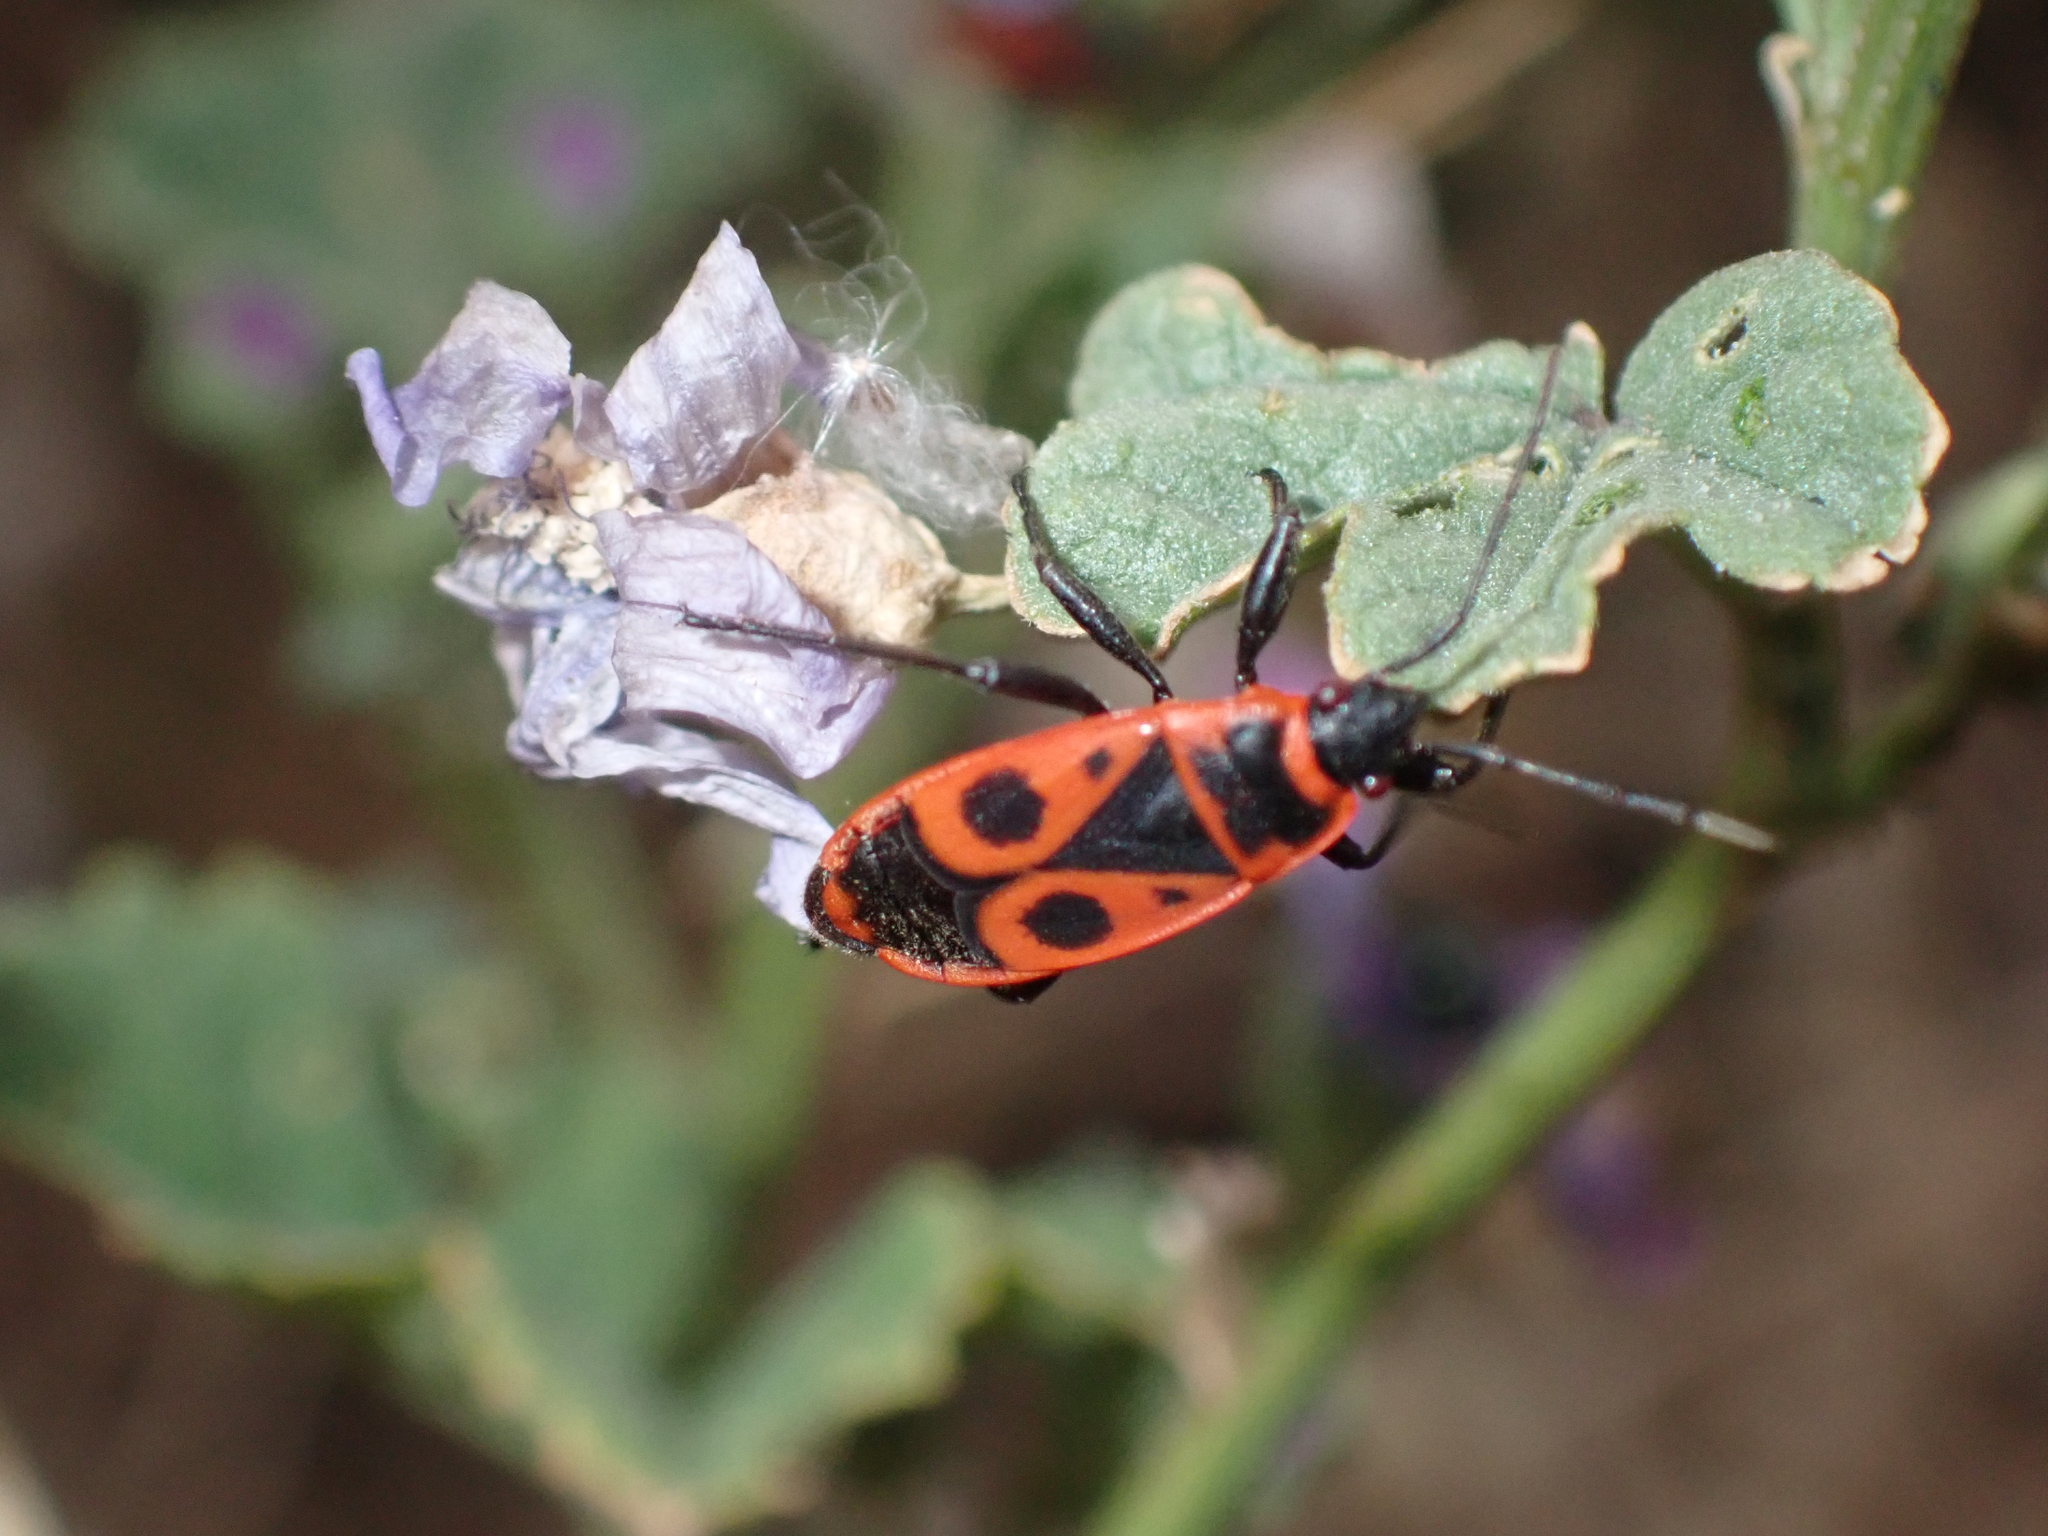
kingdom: Animalia
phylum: Arthropoda
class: Insecta
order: Hemiptera
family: Pyrrhocoridae
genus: Pyrrhocoris
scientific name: Pyrrhocoris apterus
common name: Firebug
